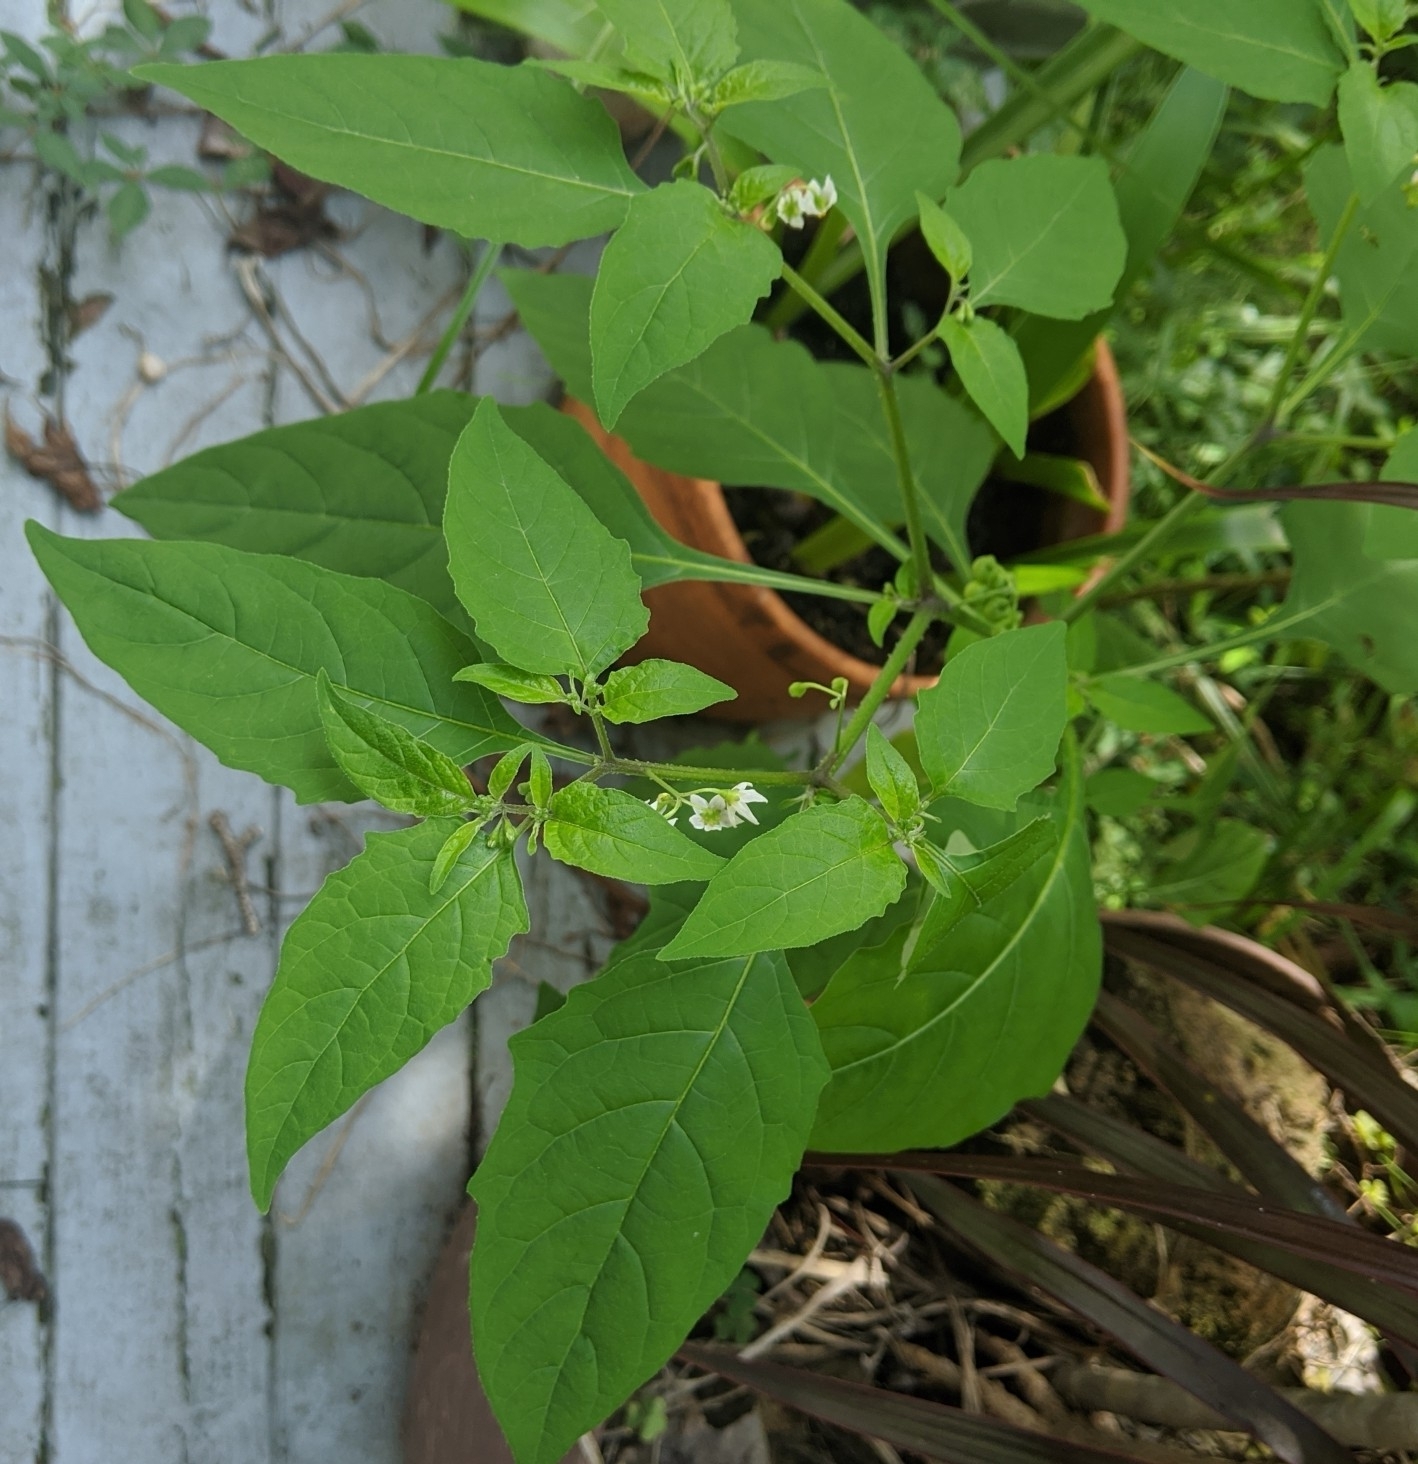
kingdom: Plantae
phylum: Tracheophyta
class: Magnoliopsida
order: Solanales
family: Solanaceae
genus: Solanum
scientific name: Solanum emulans
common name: Eastern black nightshade
